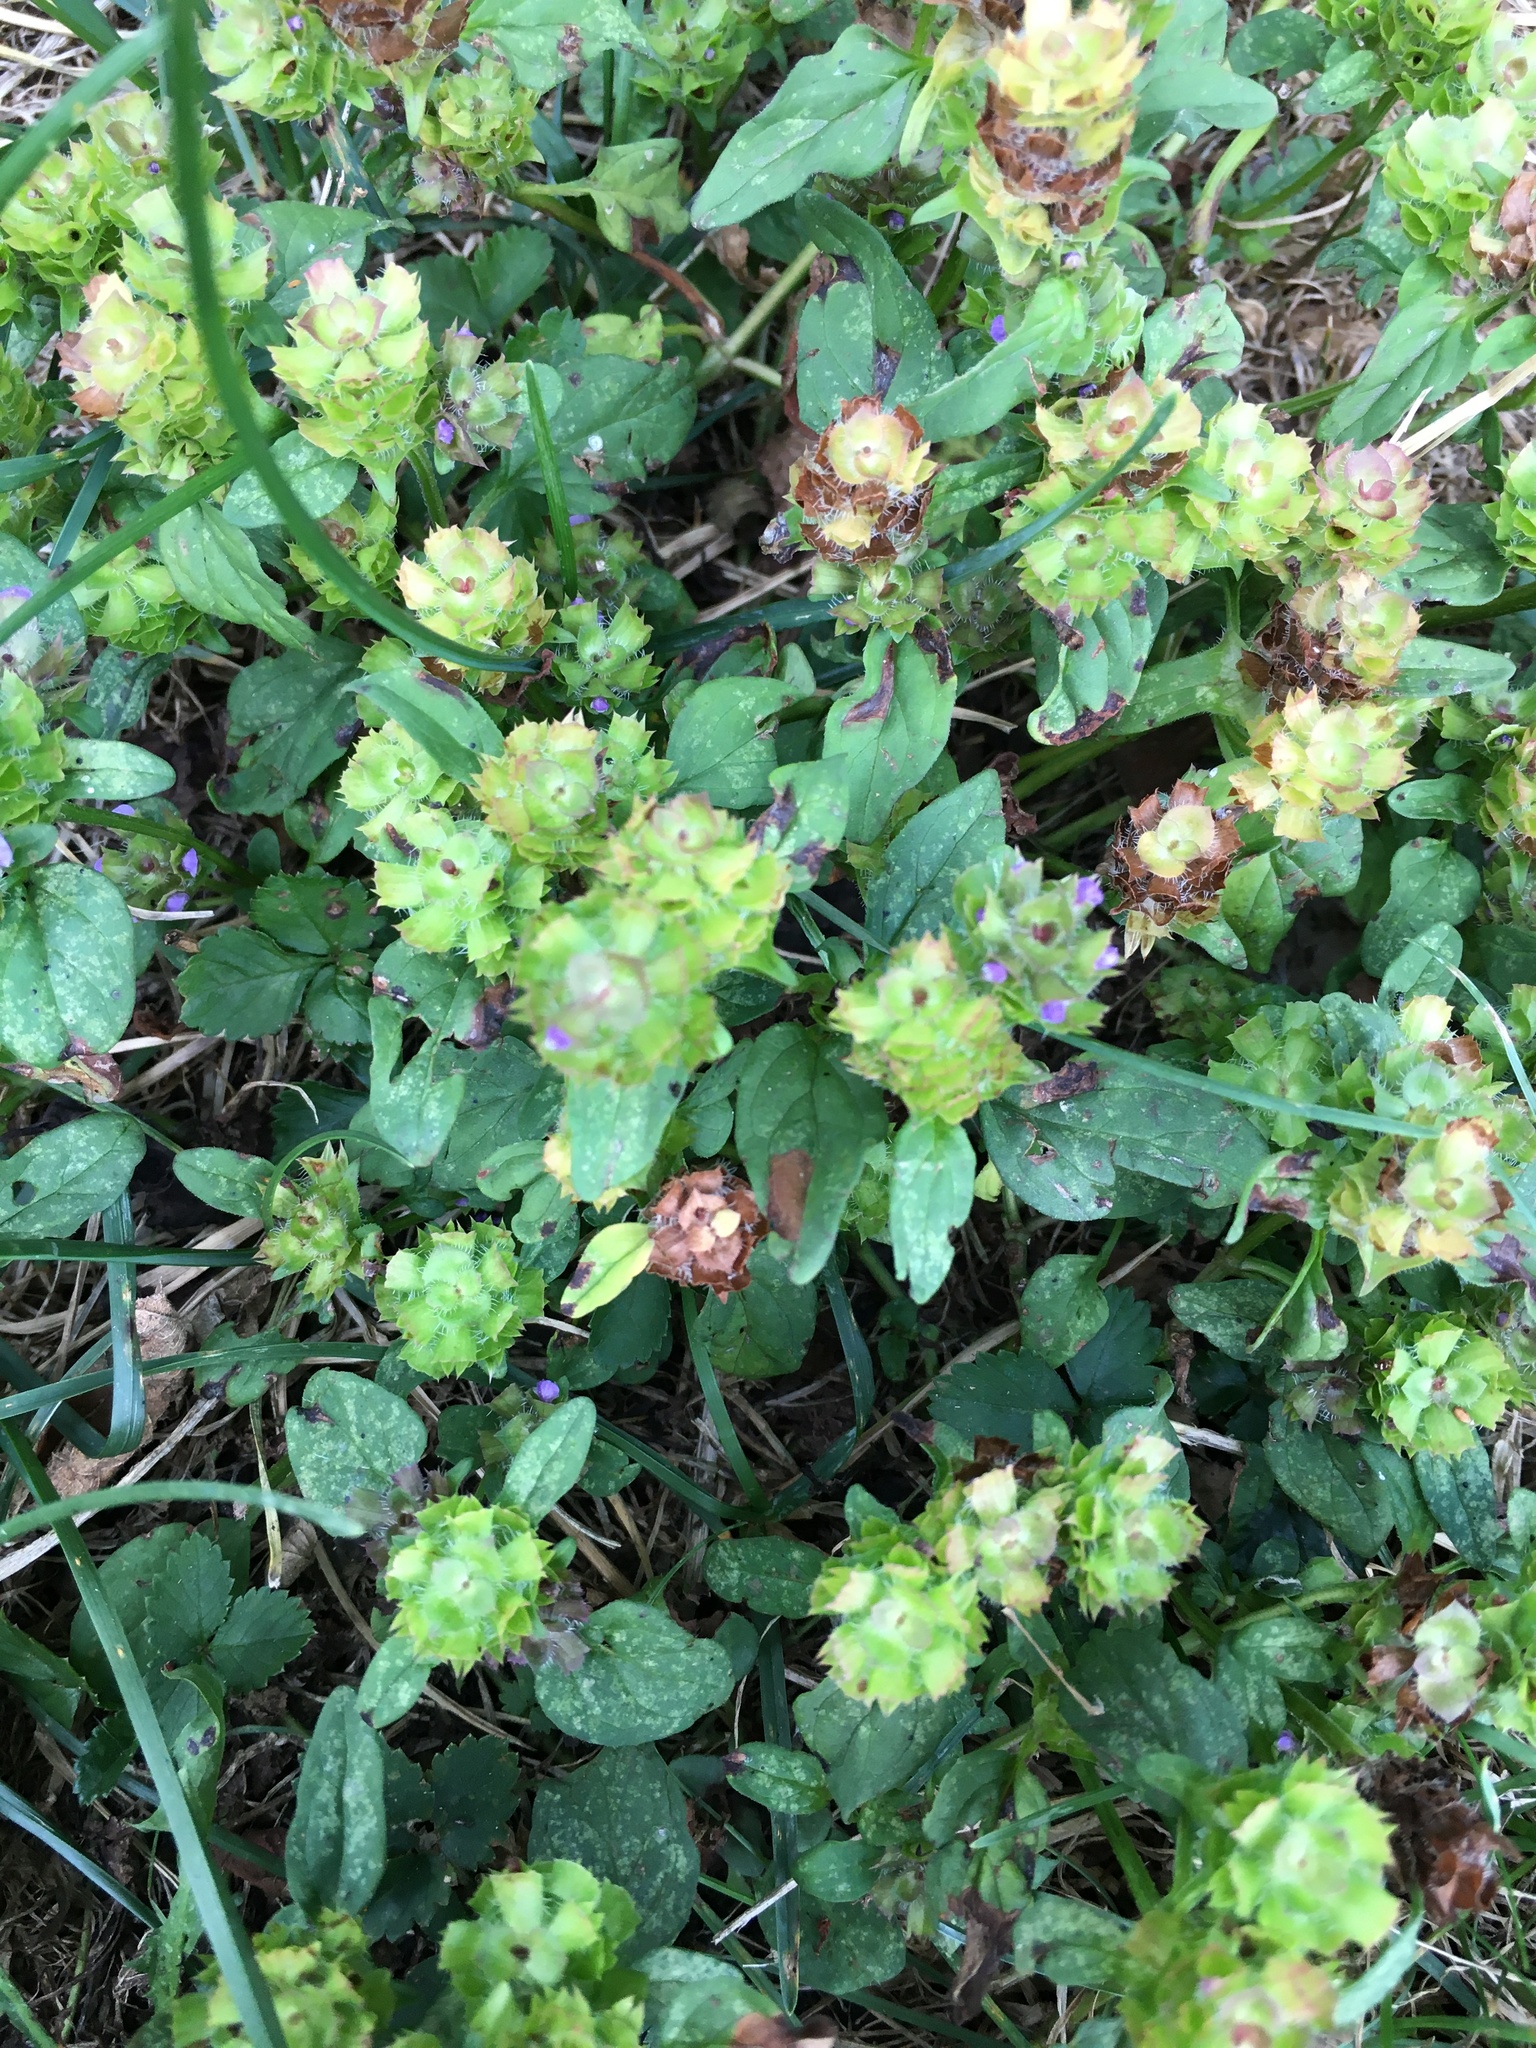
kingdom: Plantae
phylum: Tracheophyta
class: Magnoliopsida
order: Lamiales
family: Lamiaceae
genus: Prunella
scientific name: Prunella vulgaris
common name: Heal-all
